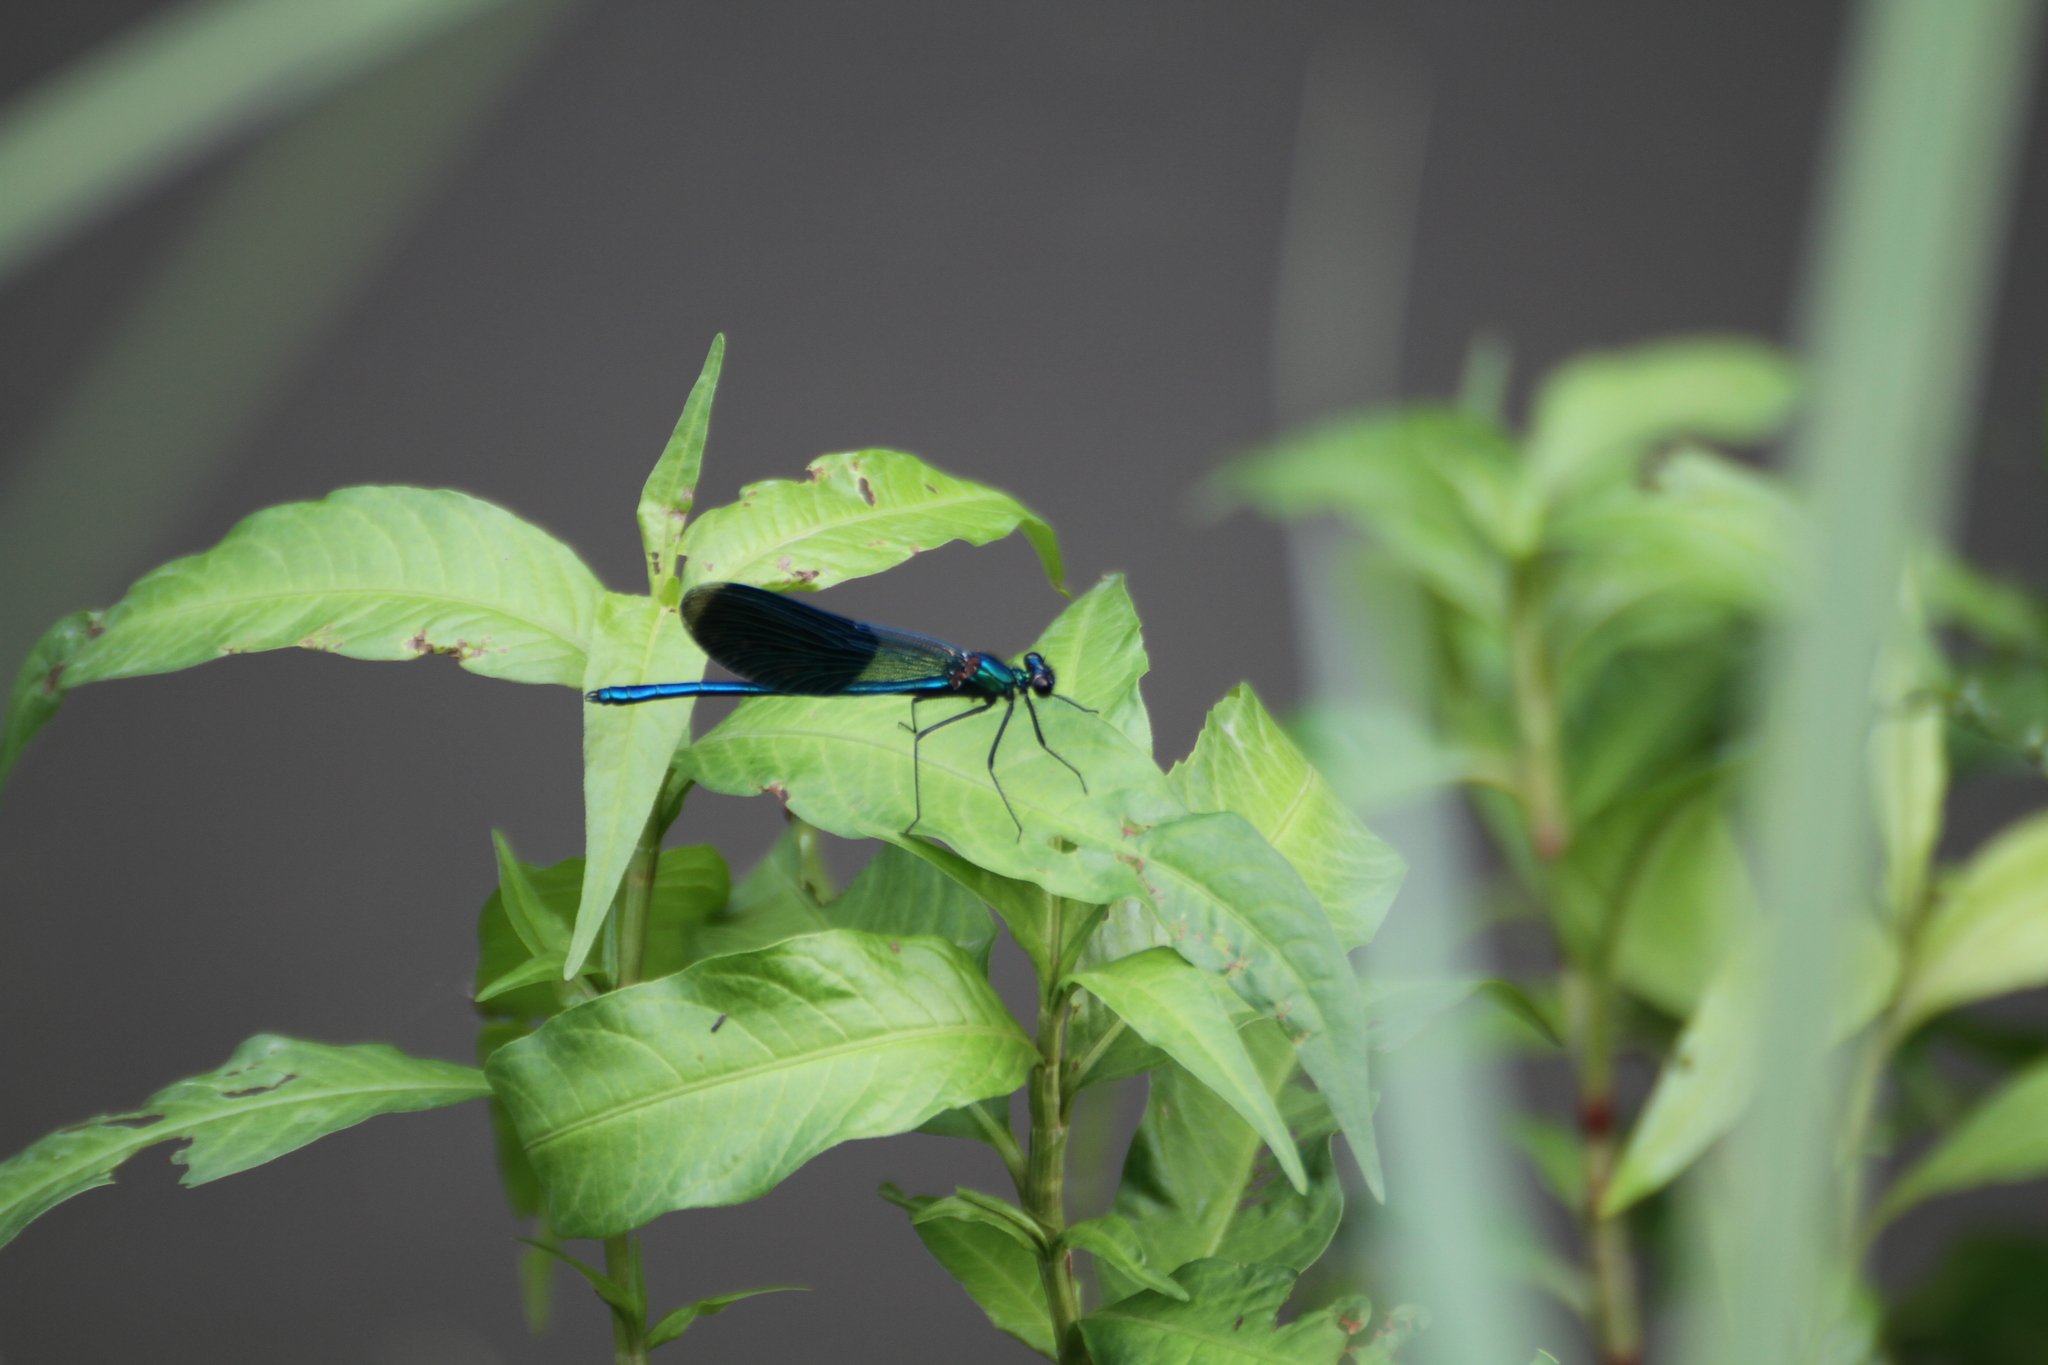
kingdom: Animalia
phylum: Arthropoda
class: Insecta
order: Odonata
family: Calopterygidae
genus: Calopteryx
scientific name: Calopteryx splendens
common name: Banded demoiselle
